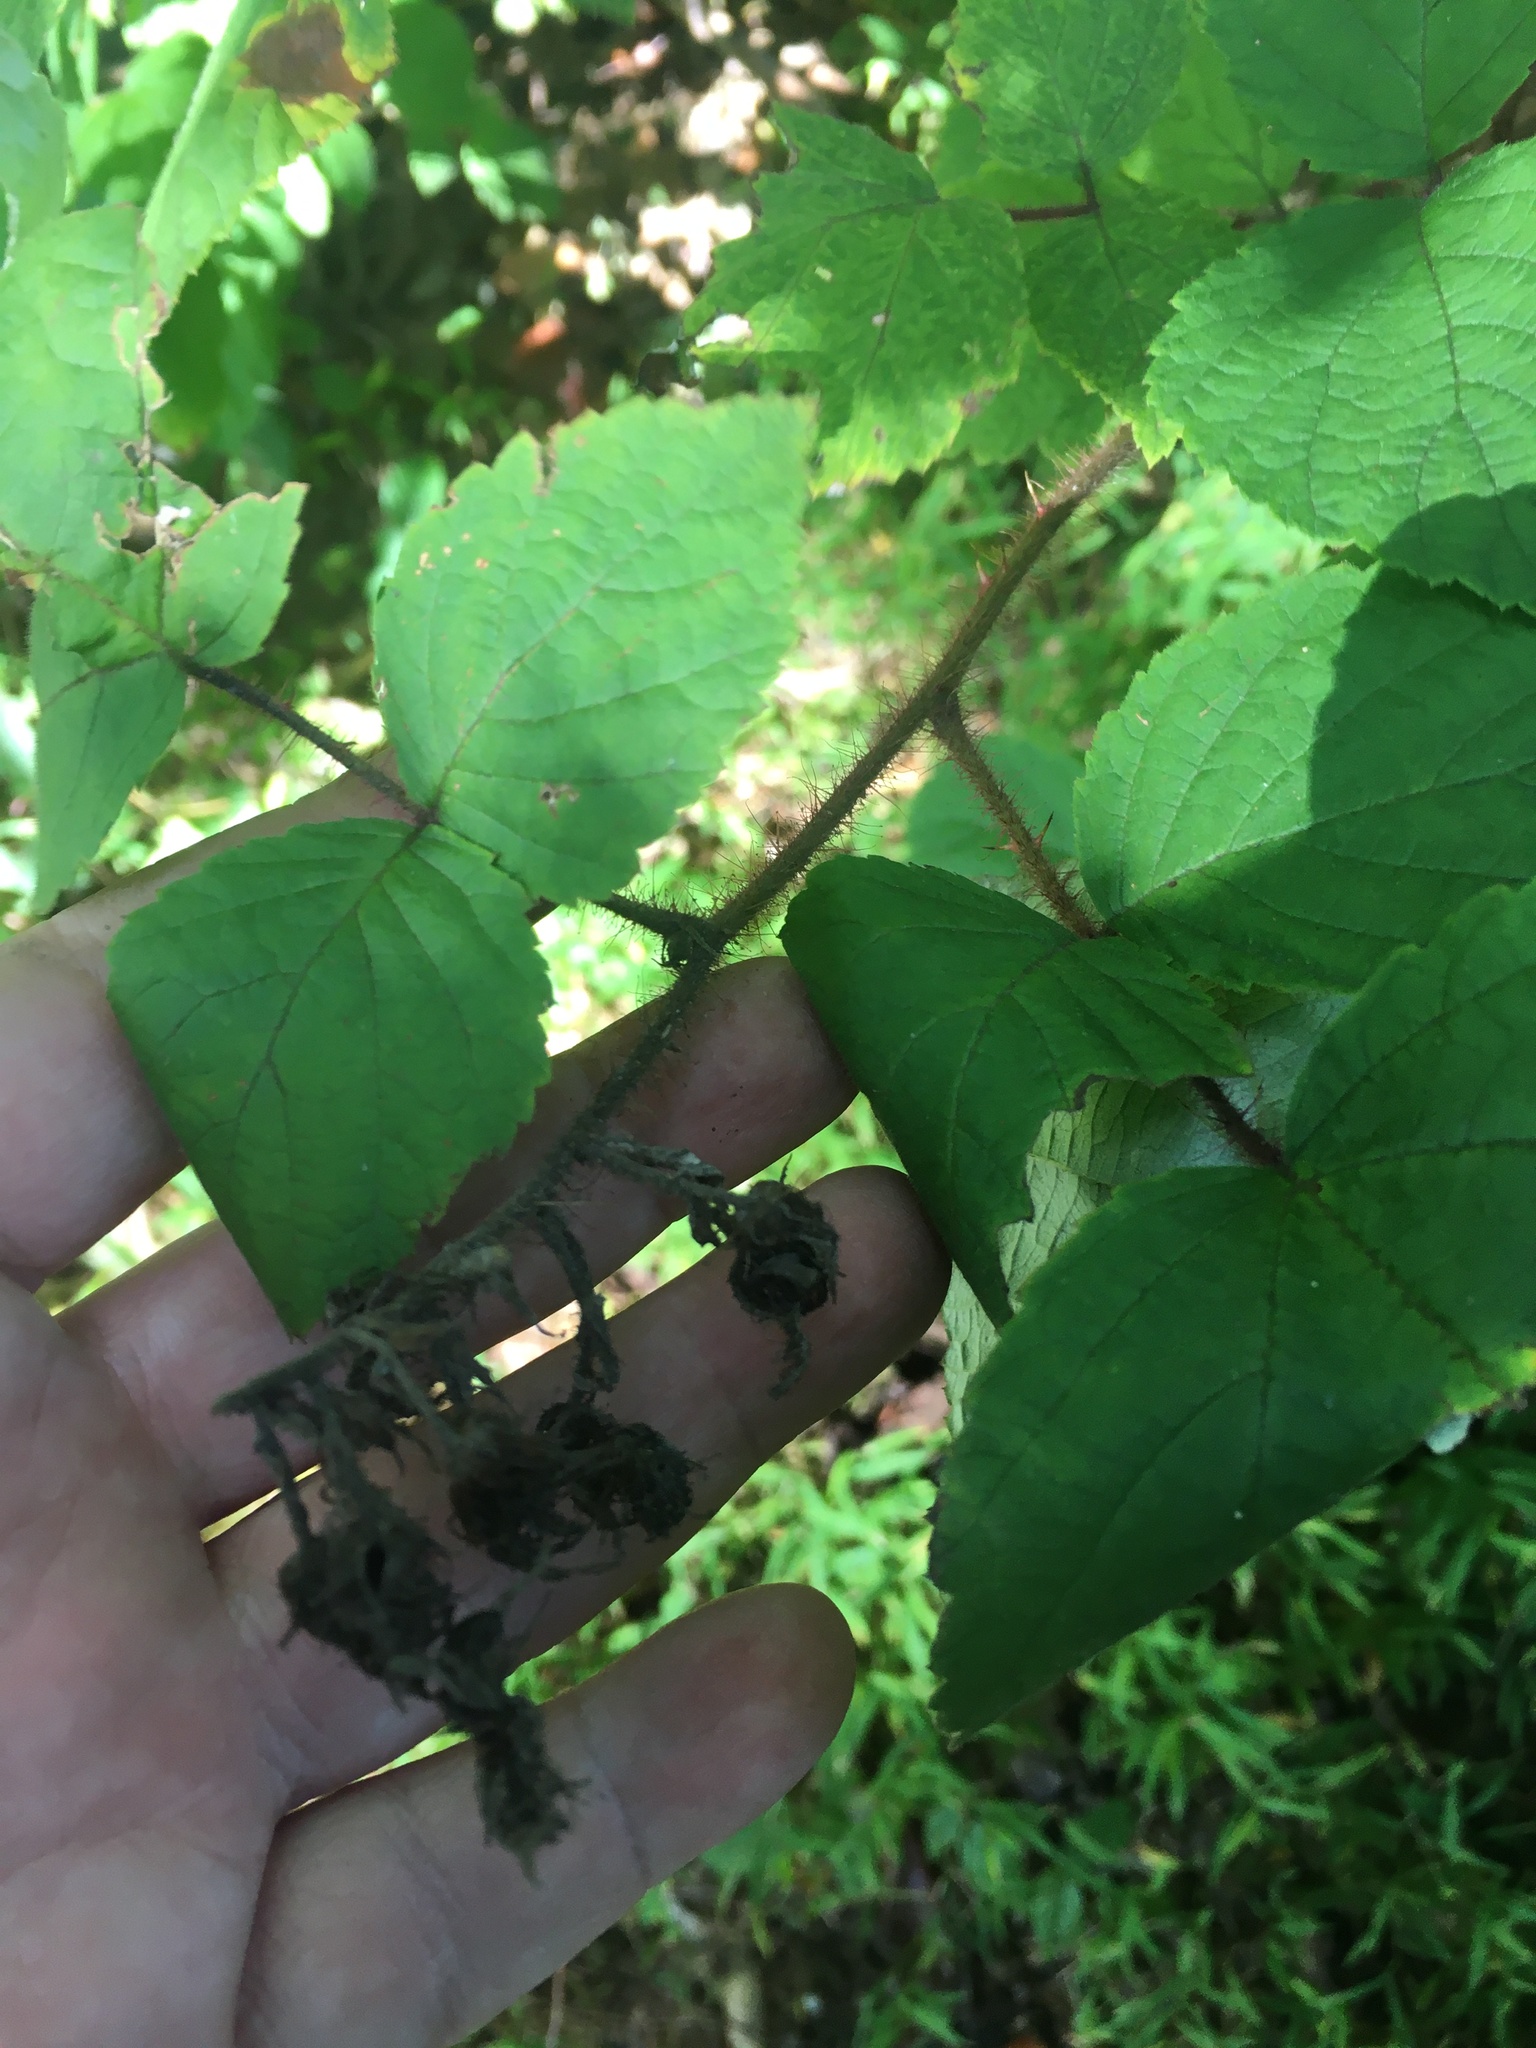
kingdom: Plantae
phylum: Tracheophyta
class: Magnoliopsida
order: Rosales
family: Rosaceae
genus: Rubus
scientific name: Rubus phoenicolasius
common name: Japanese wineberry
